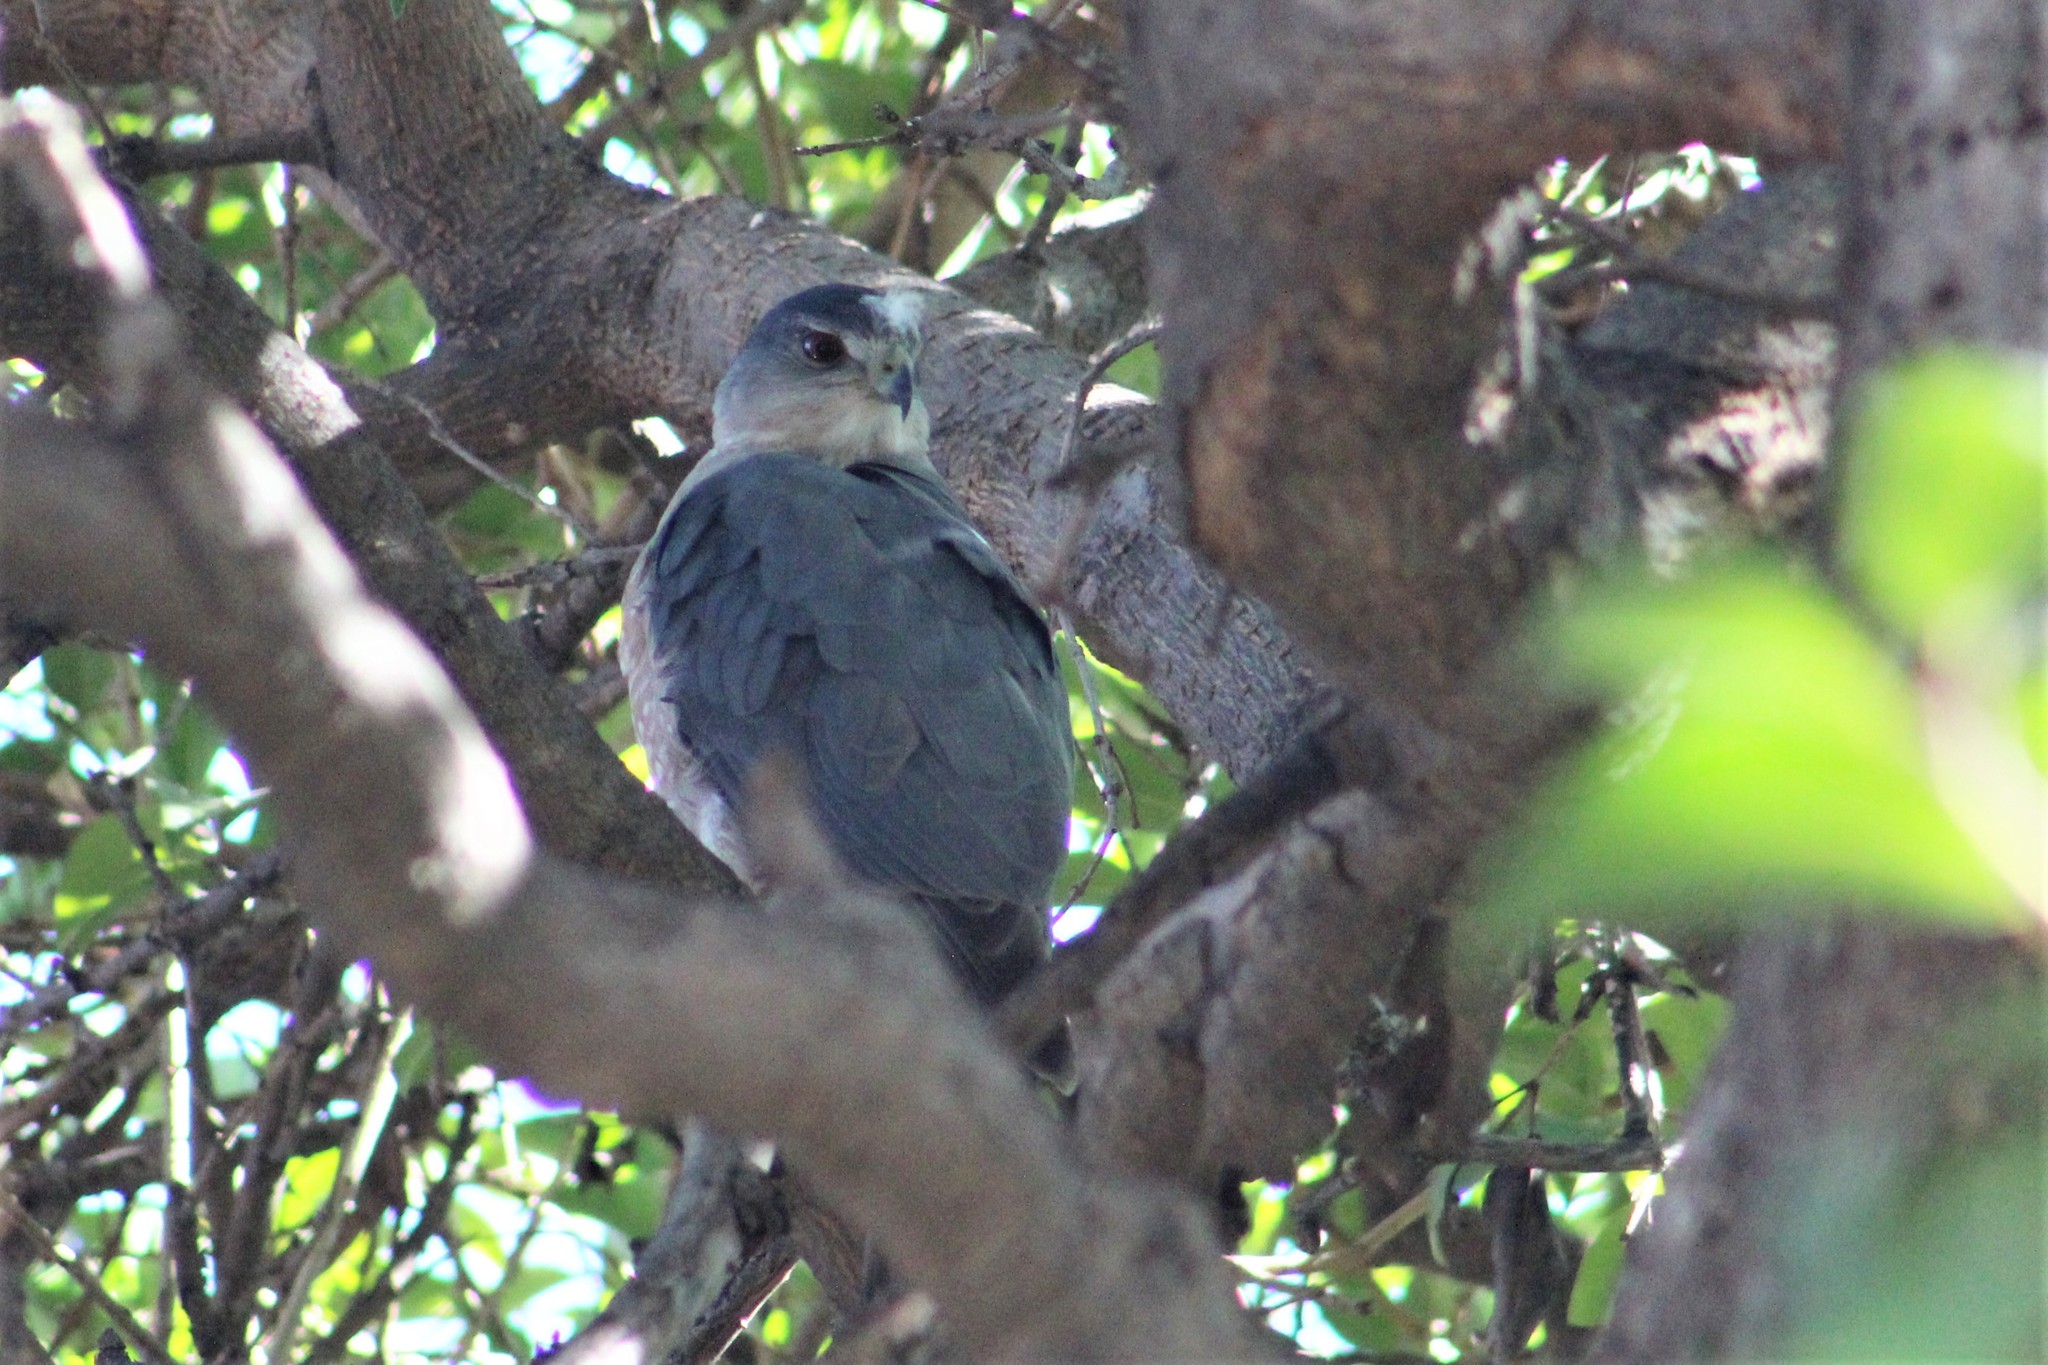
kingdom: Animalia
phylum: Chordata
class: Aves
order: Accipitriformes
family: Accipitridae
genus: Accipiter
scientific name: Accipiter cooperii
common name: Cooper's hawk
